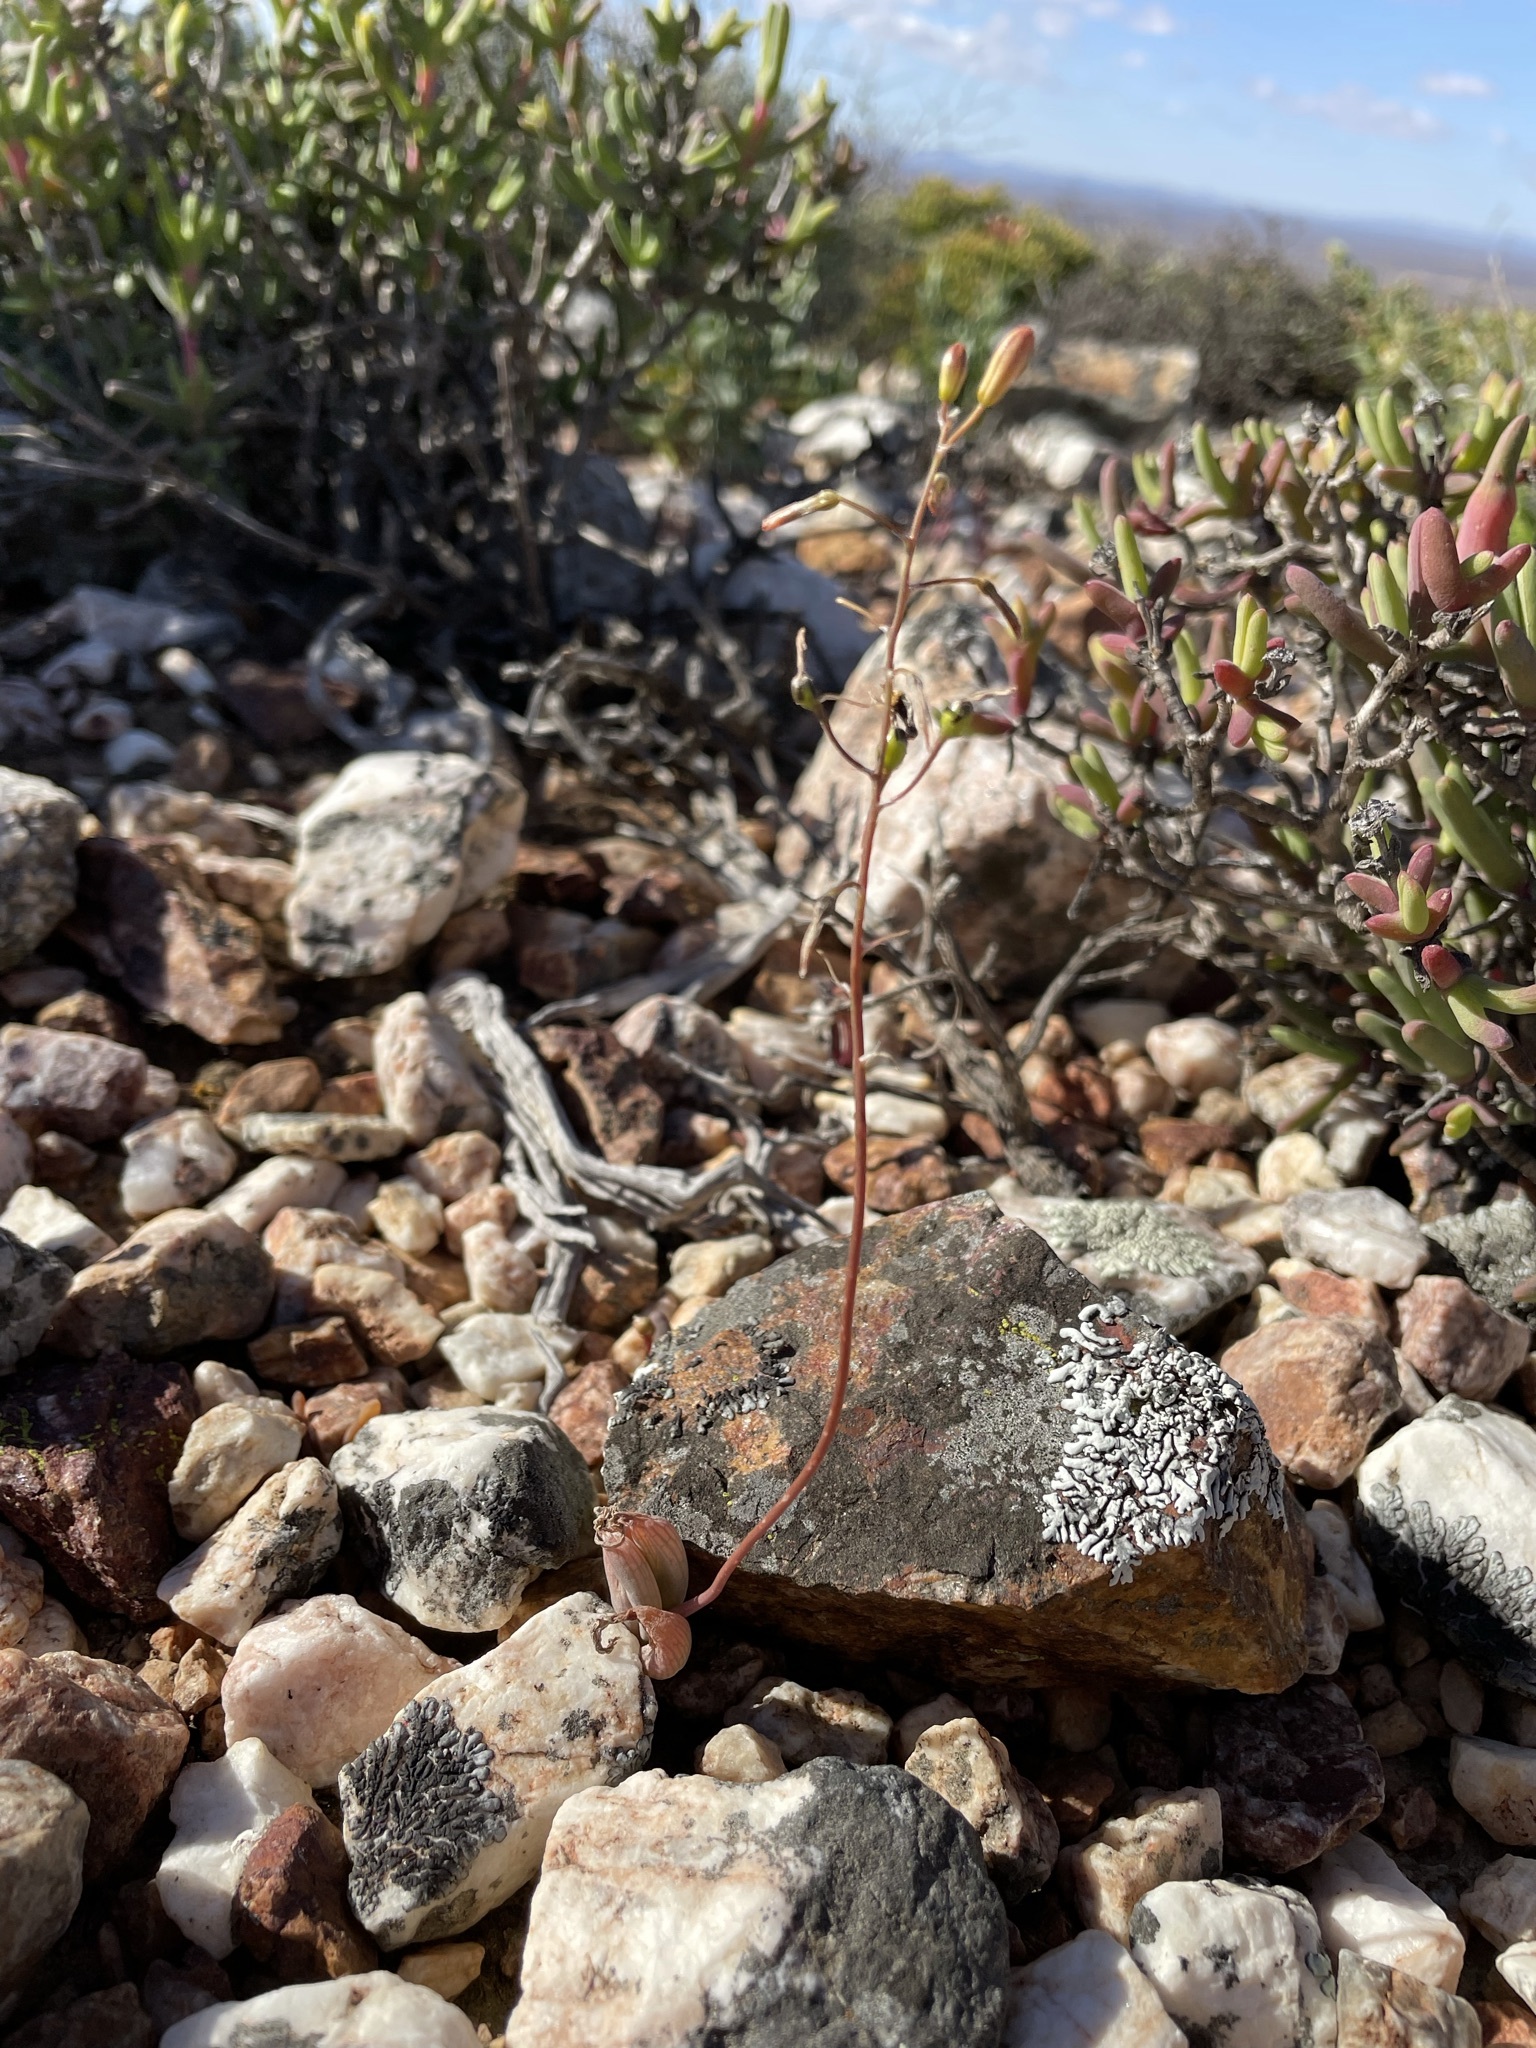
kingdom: Plantae
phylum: Tracheophyta
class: Liliopsida
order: Asparagales
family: Asphodelaceae
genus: Bulbine
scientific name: Bulbine diphylla
